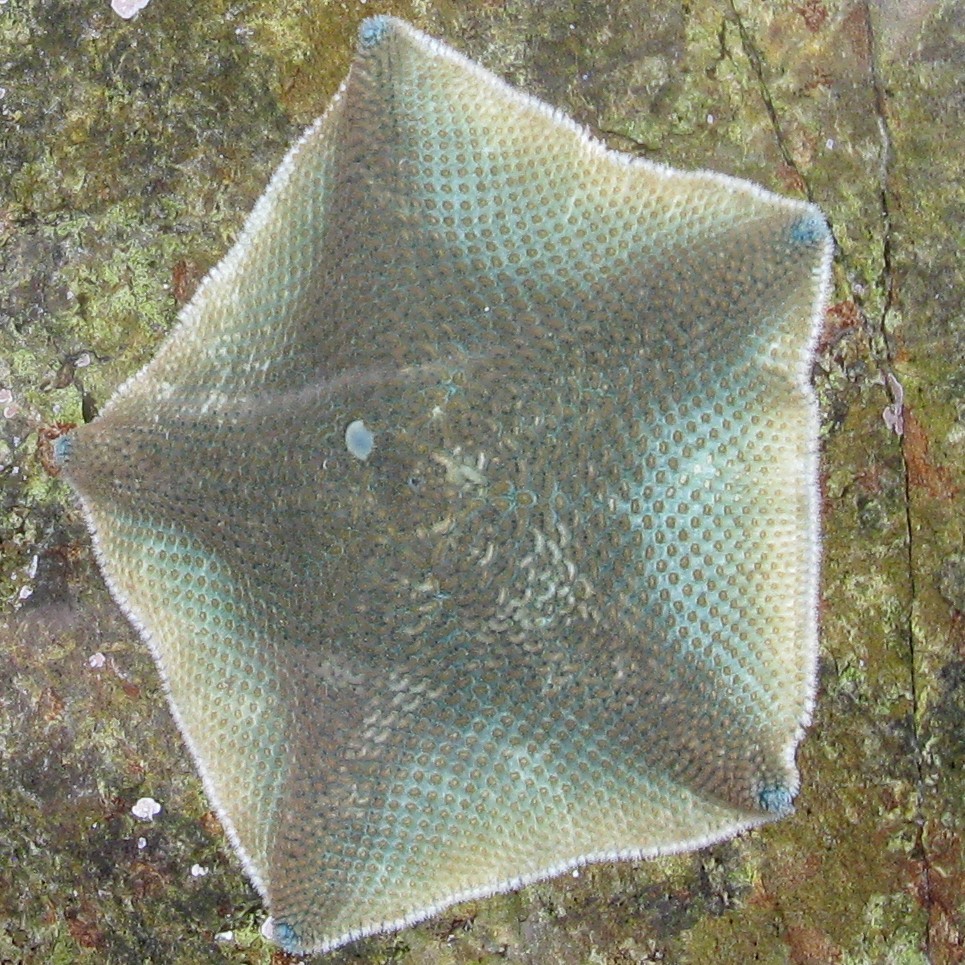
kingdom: Animalia
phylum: Echinodermata
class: Asteroidea
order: Valvatida
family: Asterinidae
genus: Patiriella
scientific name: Patiriella regularis
